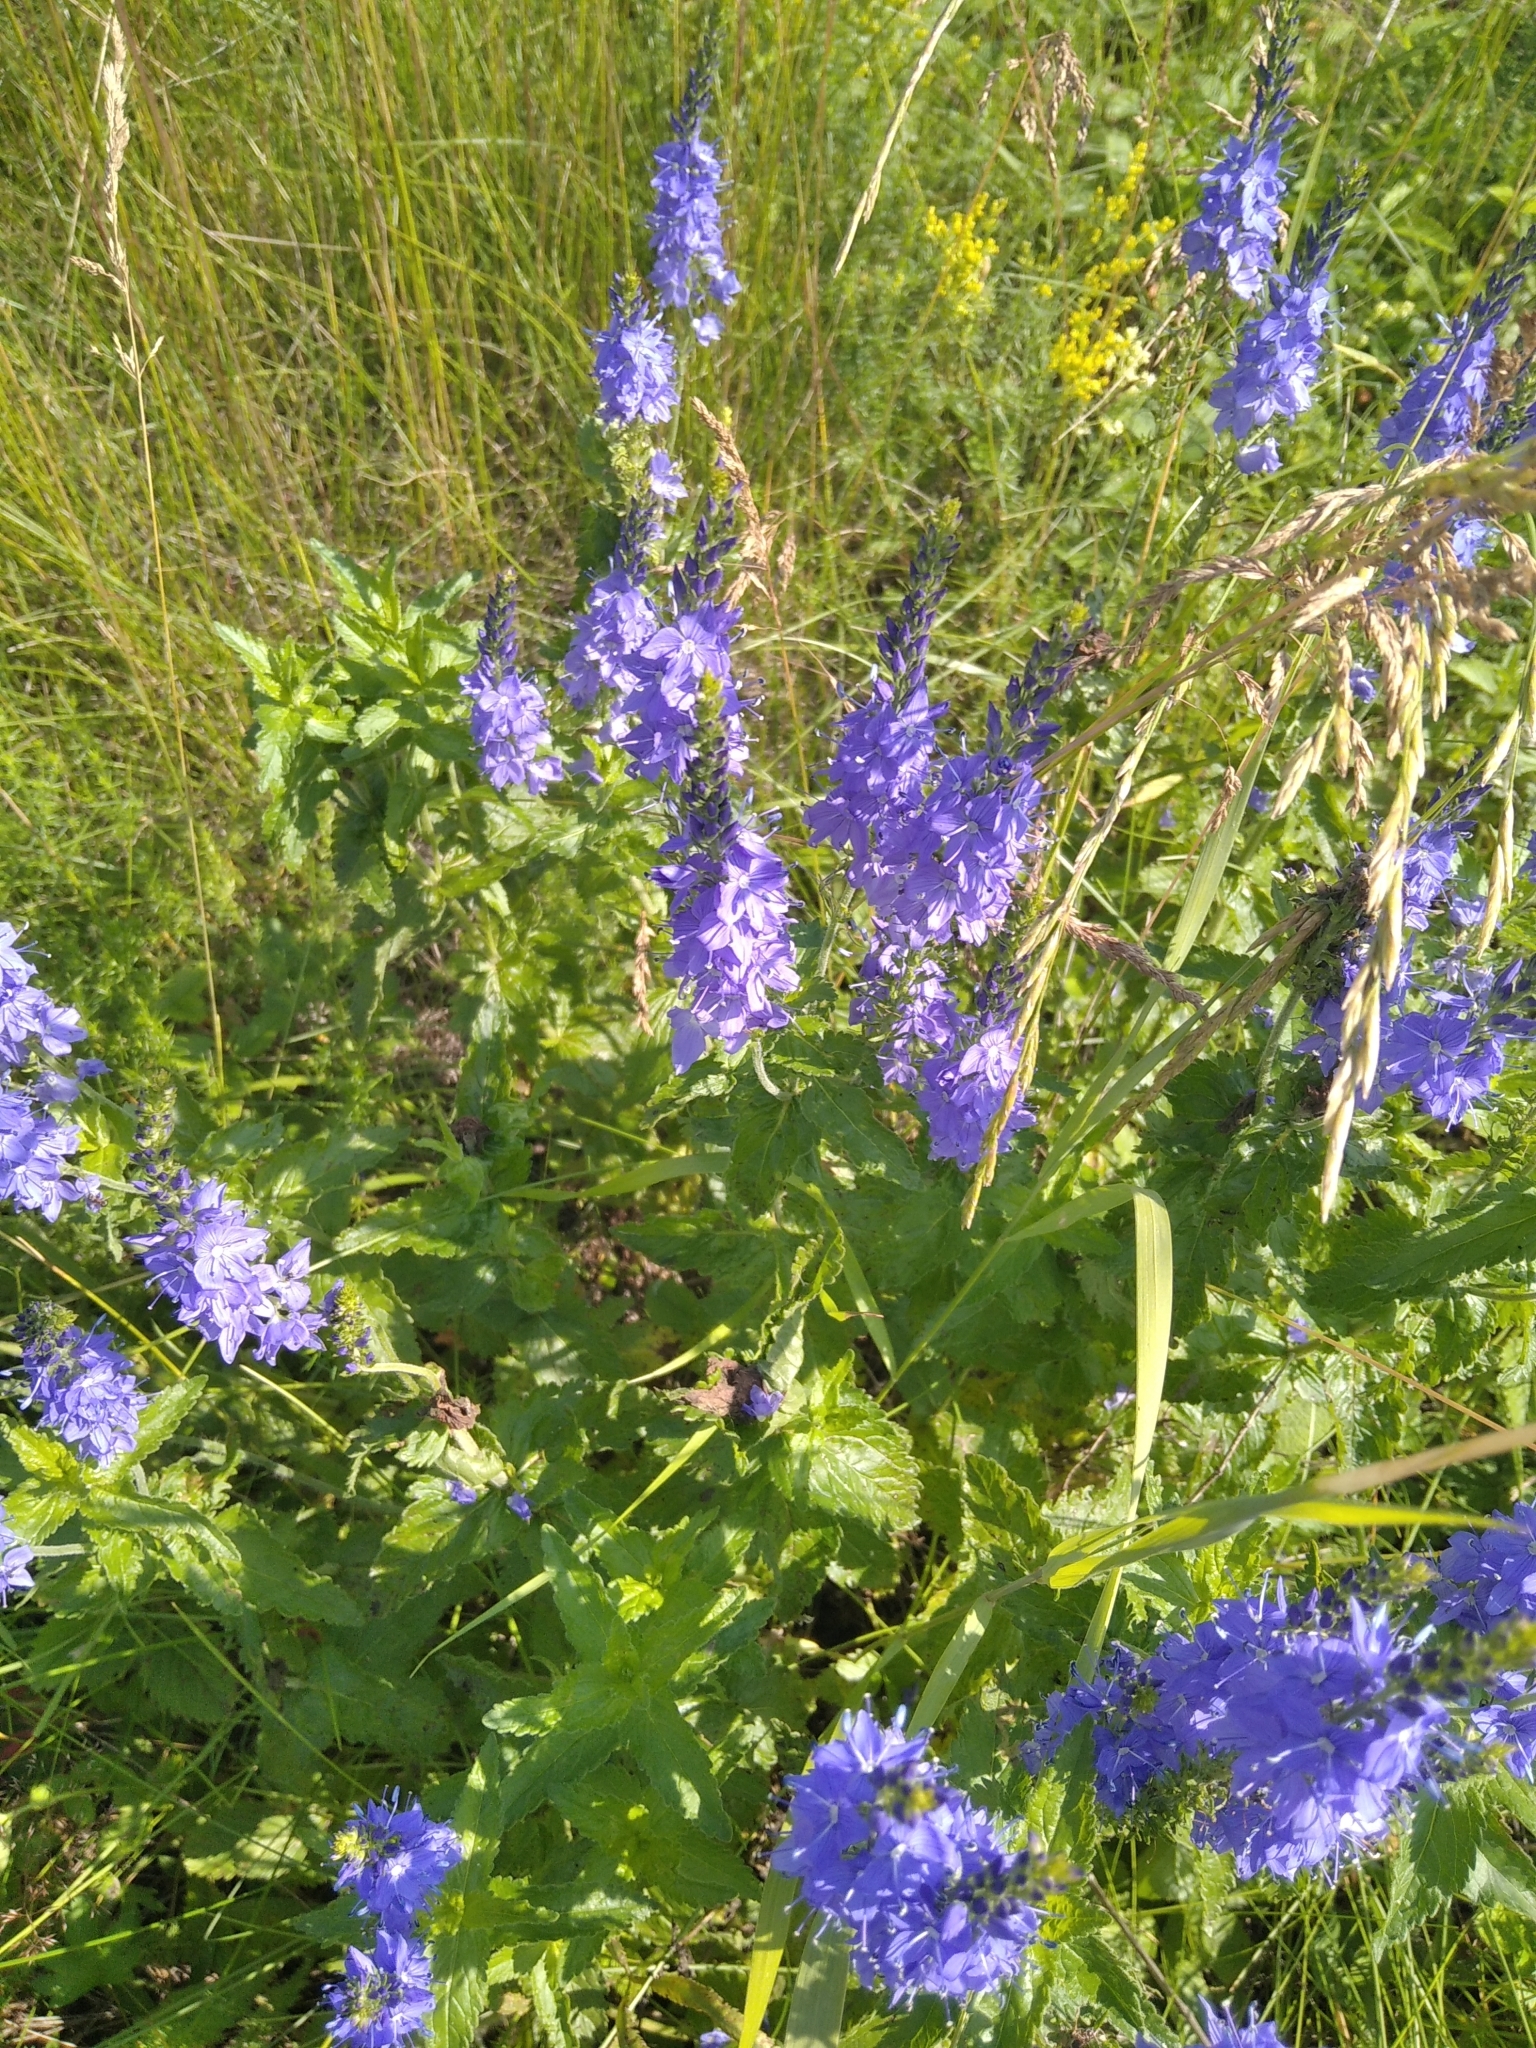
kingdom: Plantae
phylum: Tracheophyta
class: Magnoliopsida
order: Lamiales
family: Plantaginaceae
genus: Veronica
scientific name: Veronica teucrium
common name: Large speedwell
